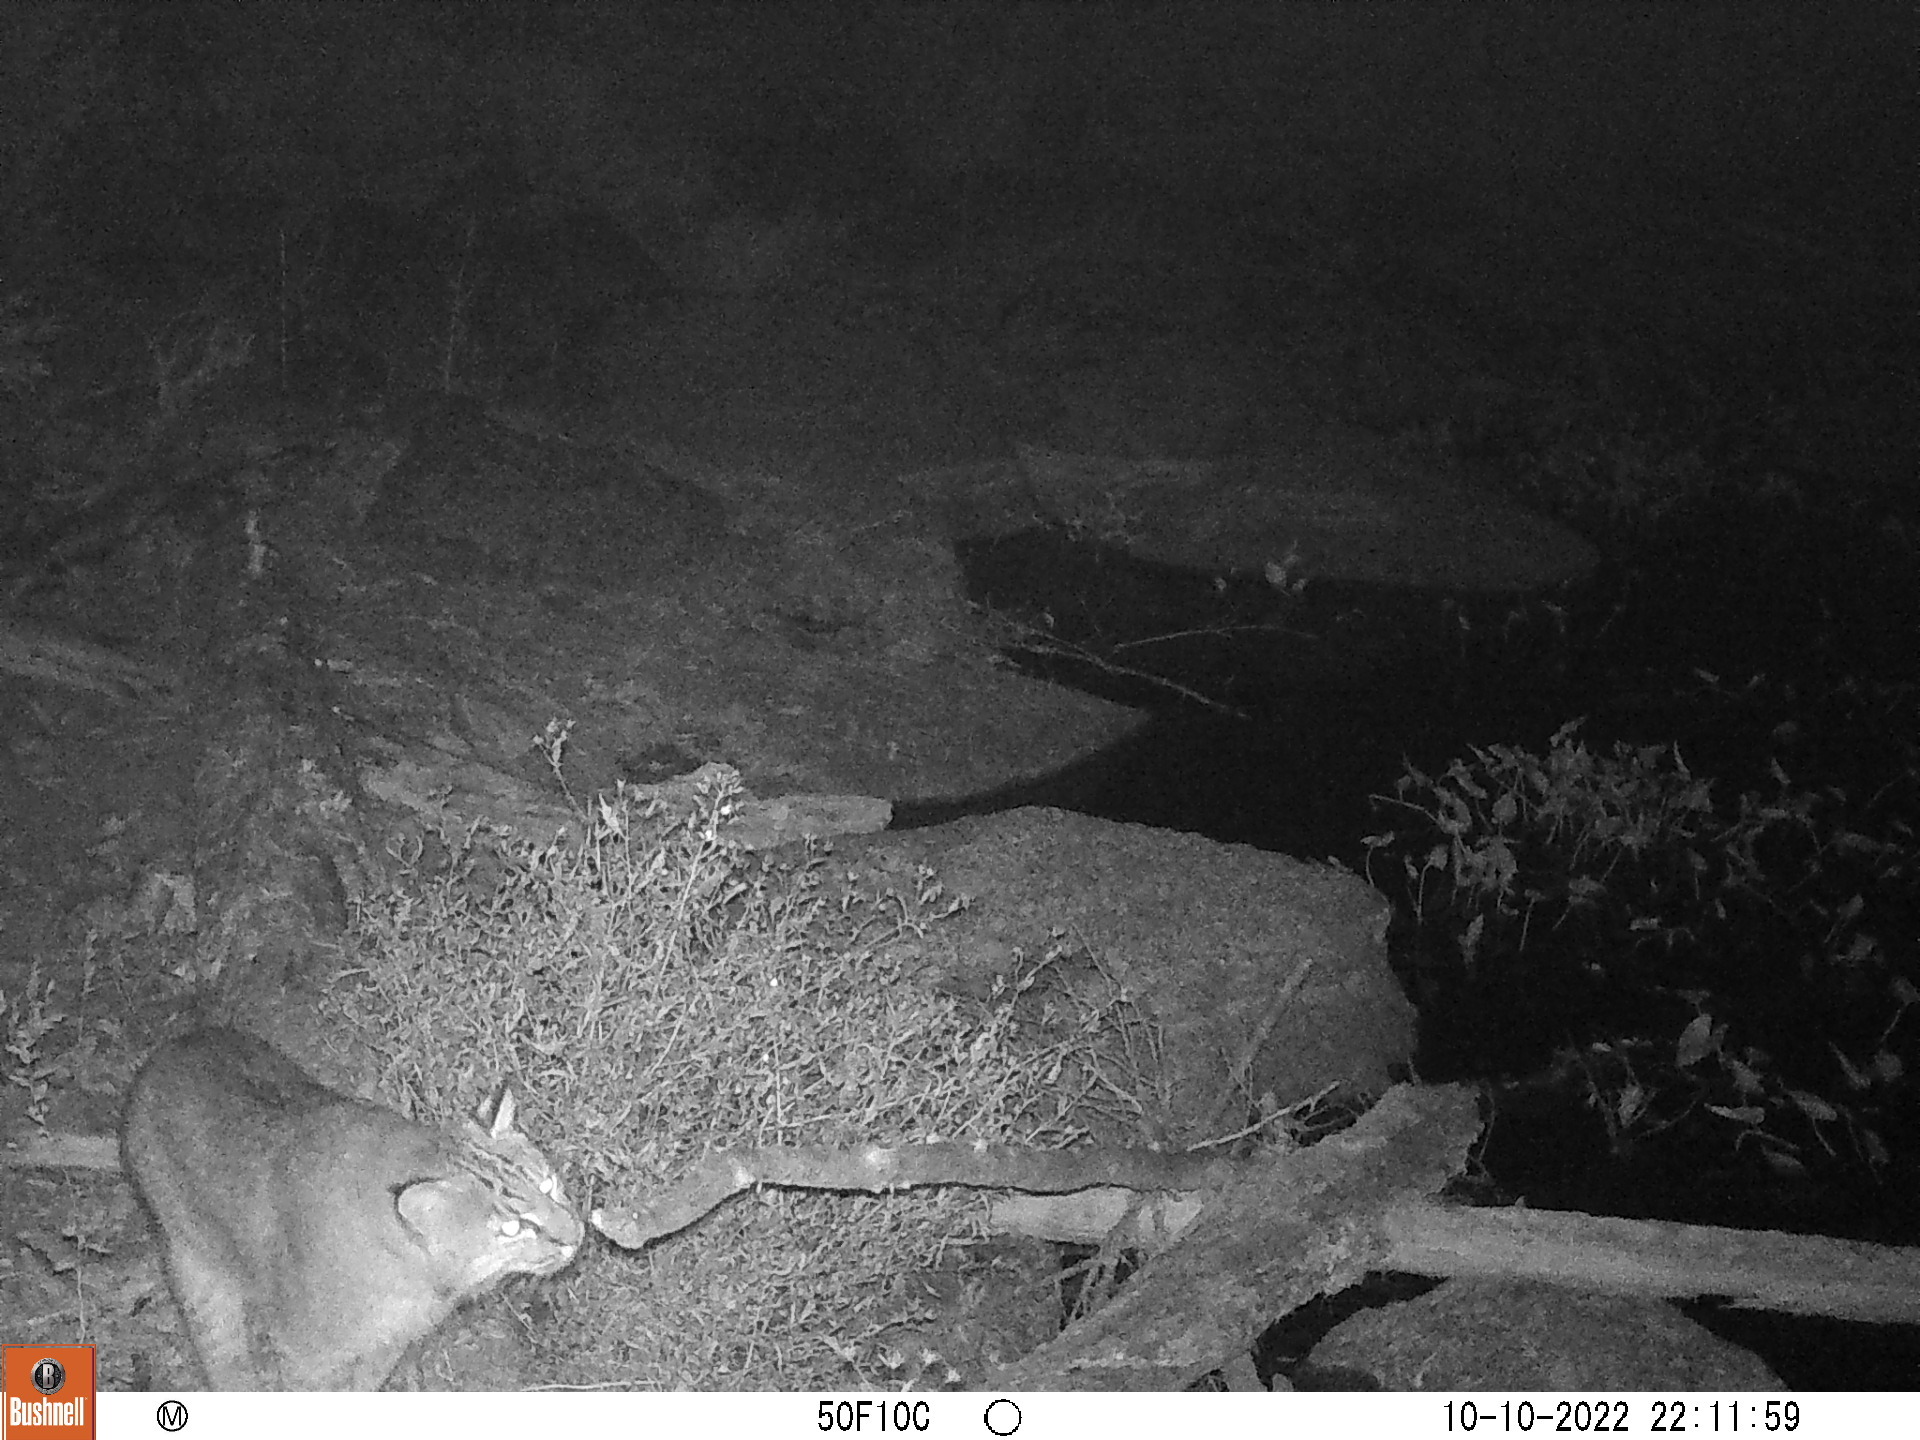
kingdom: Animalia
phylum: Chordata
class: Mammalia
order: Carnivora
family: Felidae
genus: Lynx
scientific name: Lynx rufus
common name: Bobcat
